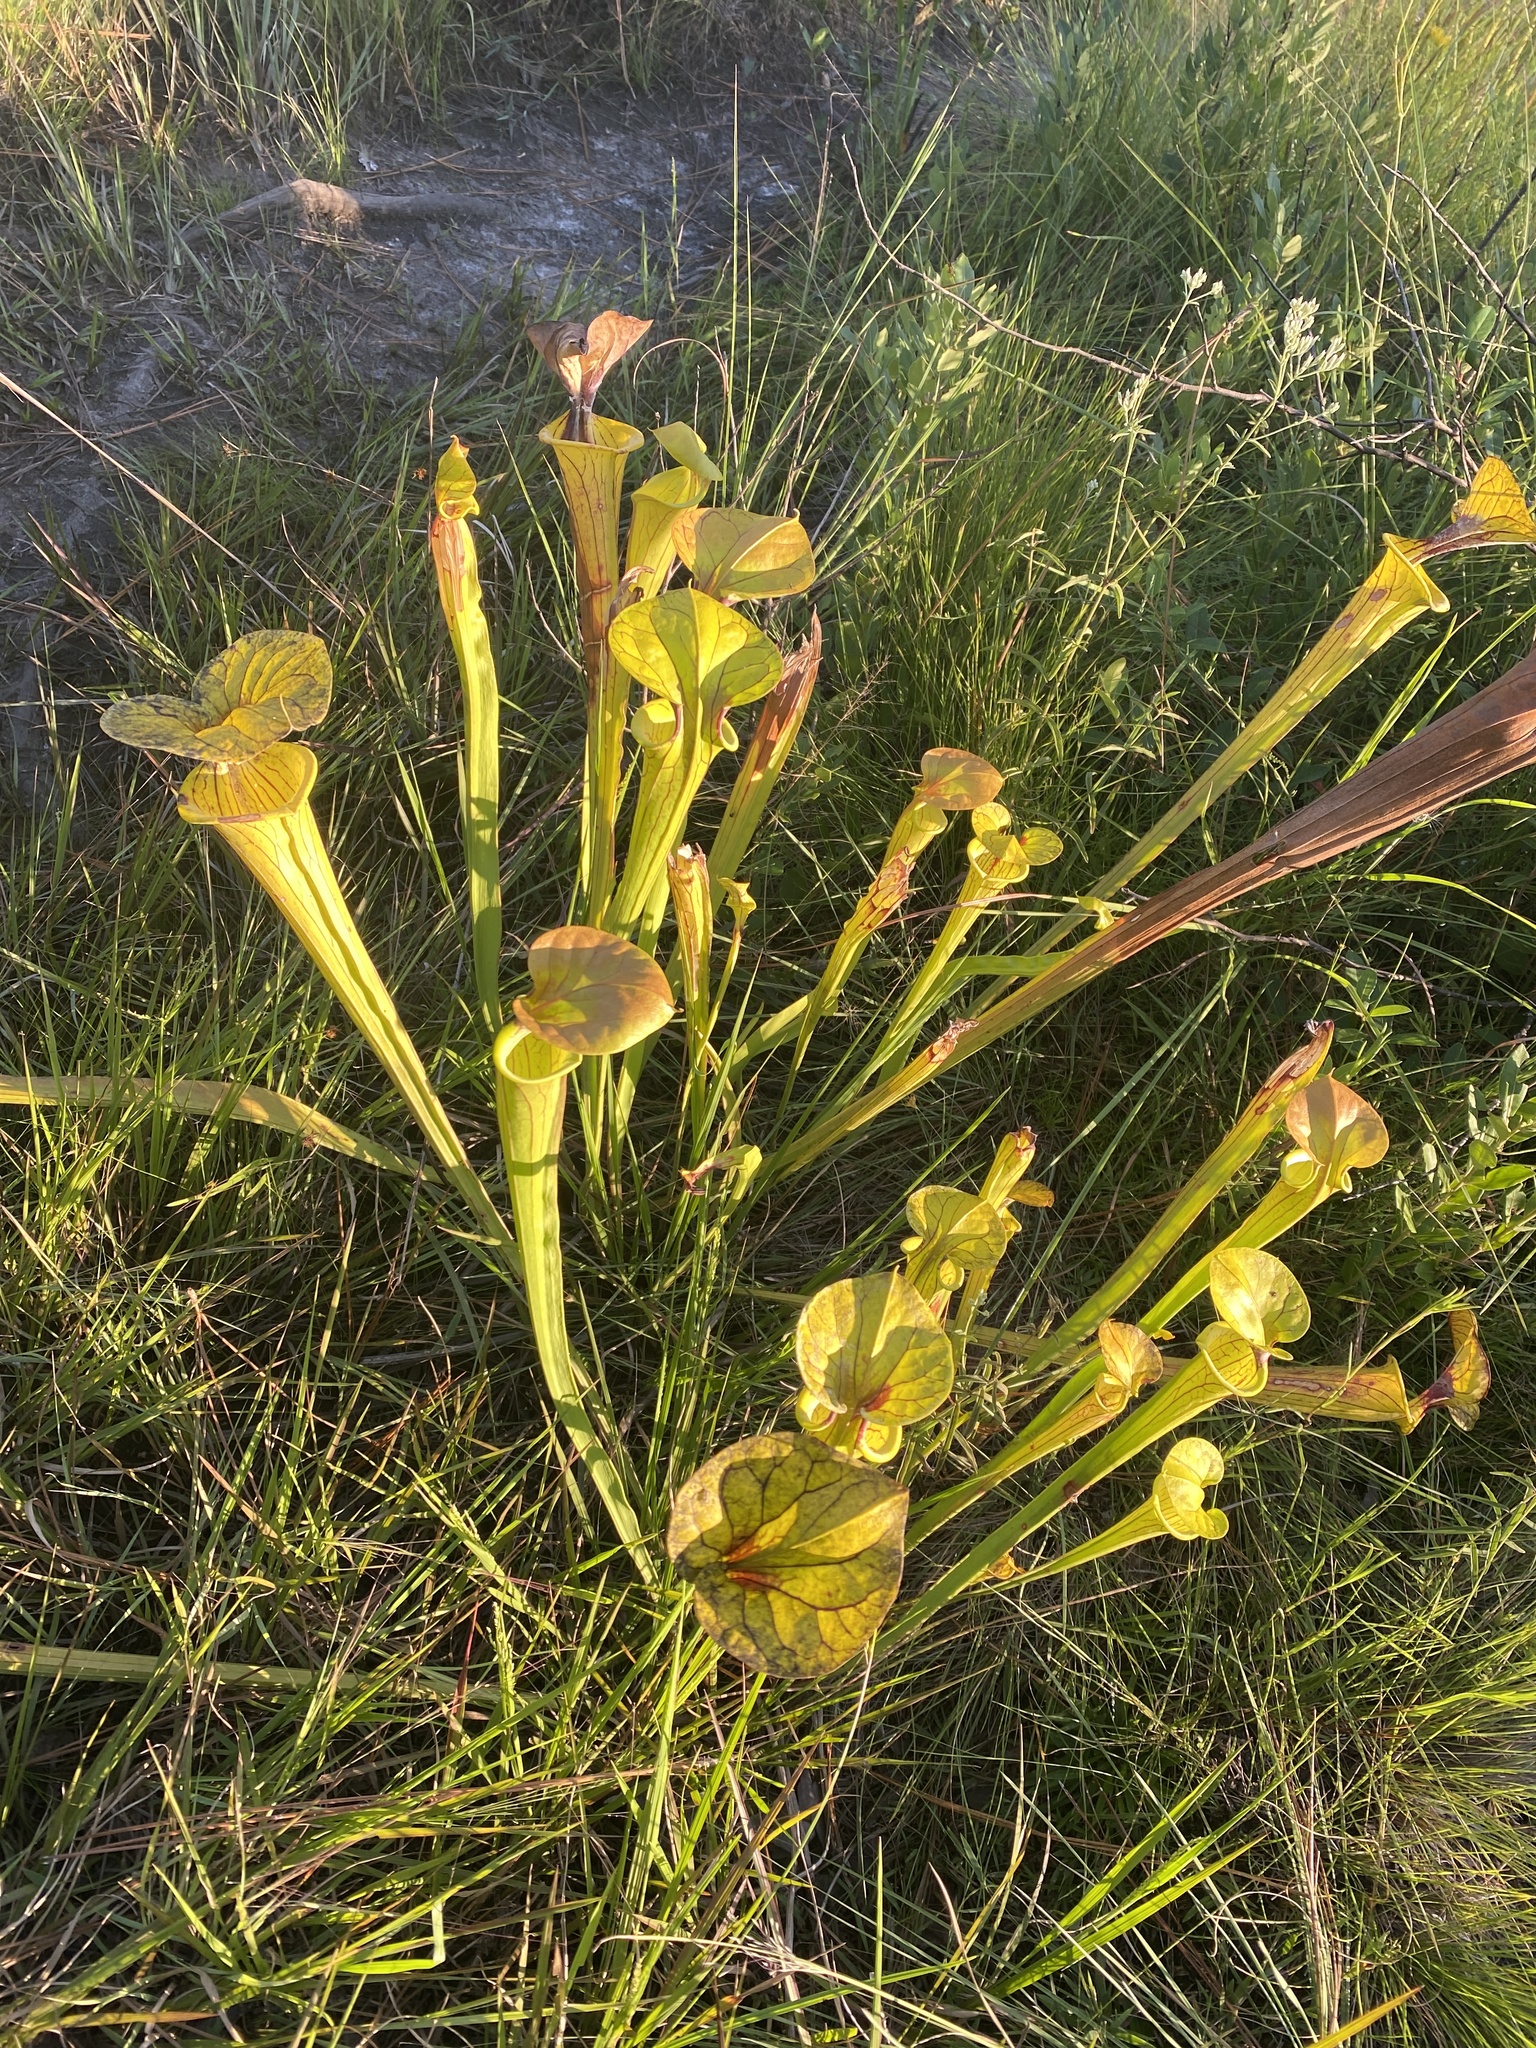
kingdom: Plantae
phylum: Tracheophyta
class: Magnoliopsida
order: Ericales
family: Sarraceniaceae
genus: Sarracenia
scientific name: Sarracenia flava
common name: Trumpets
